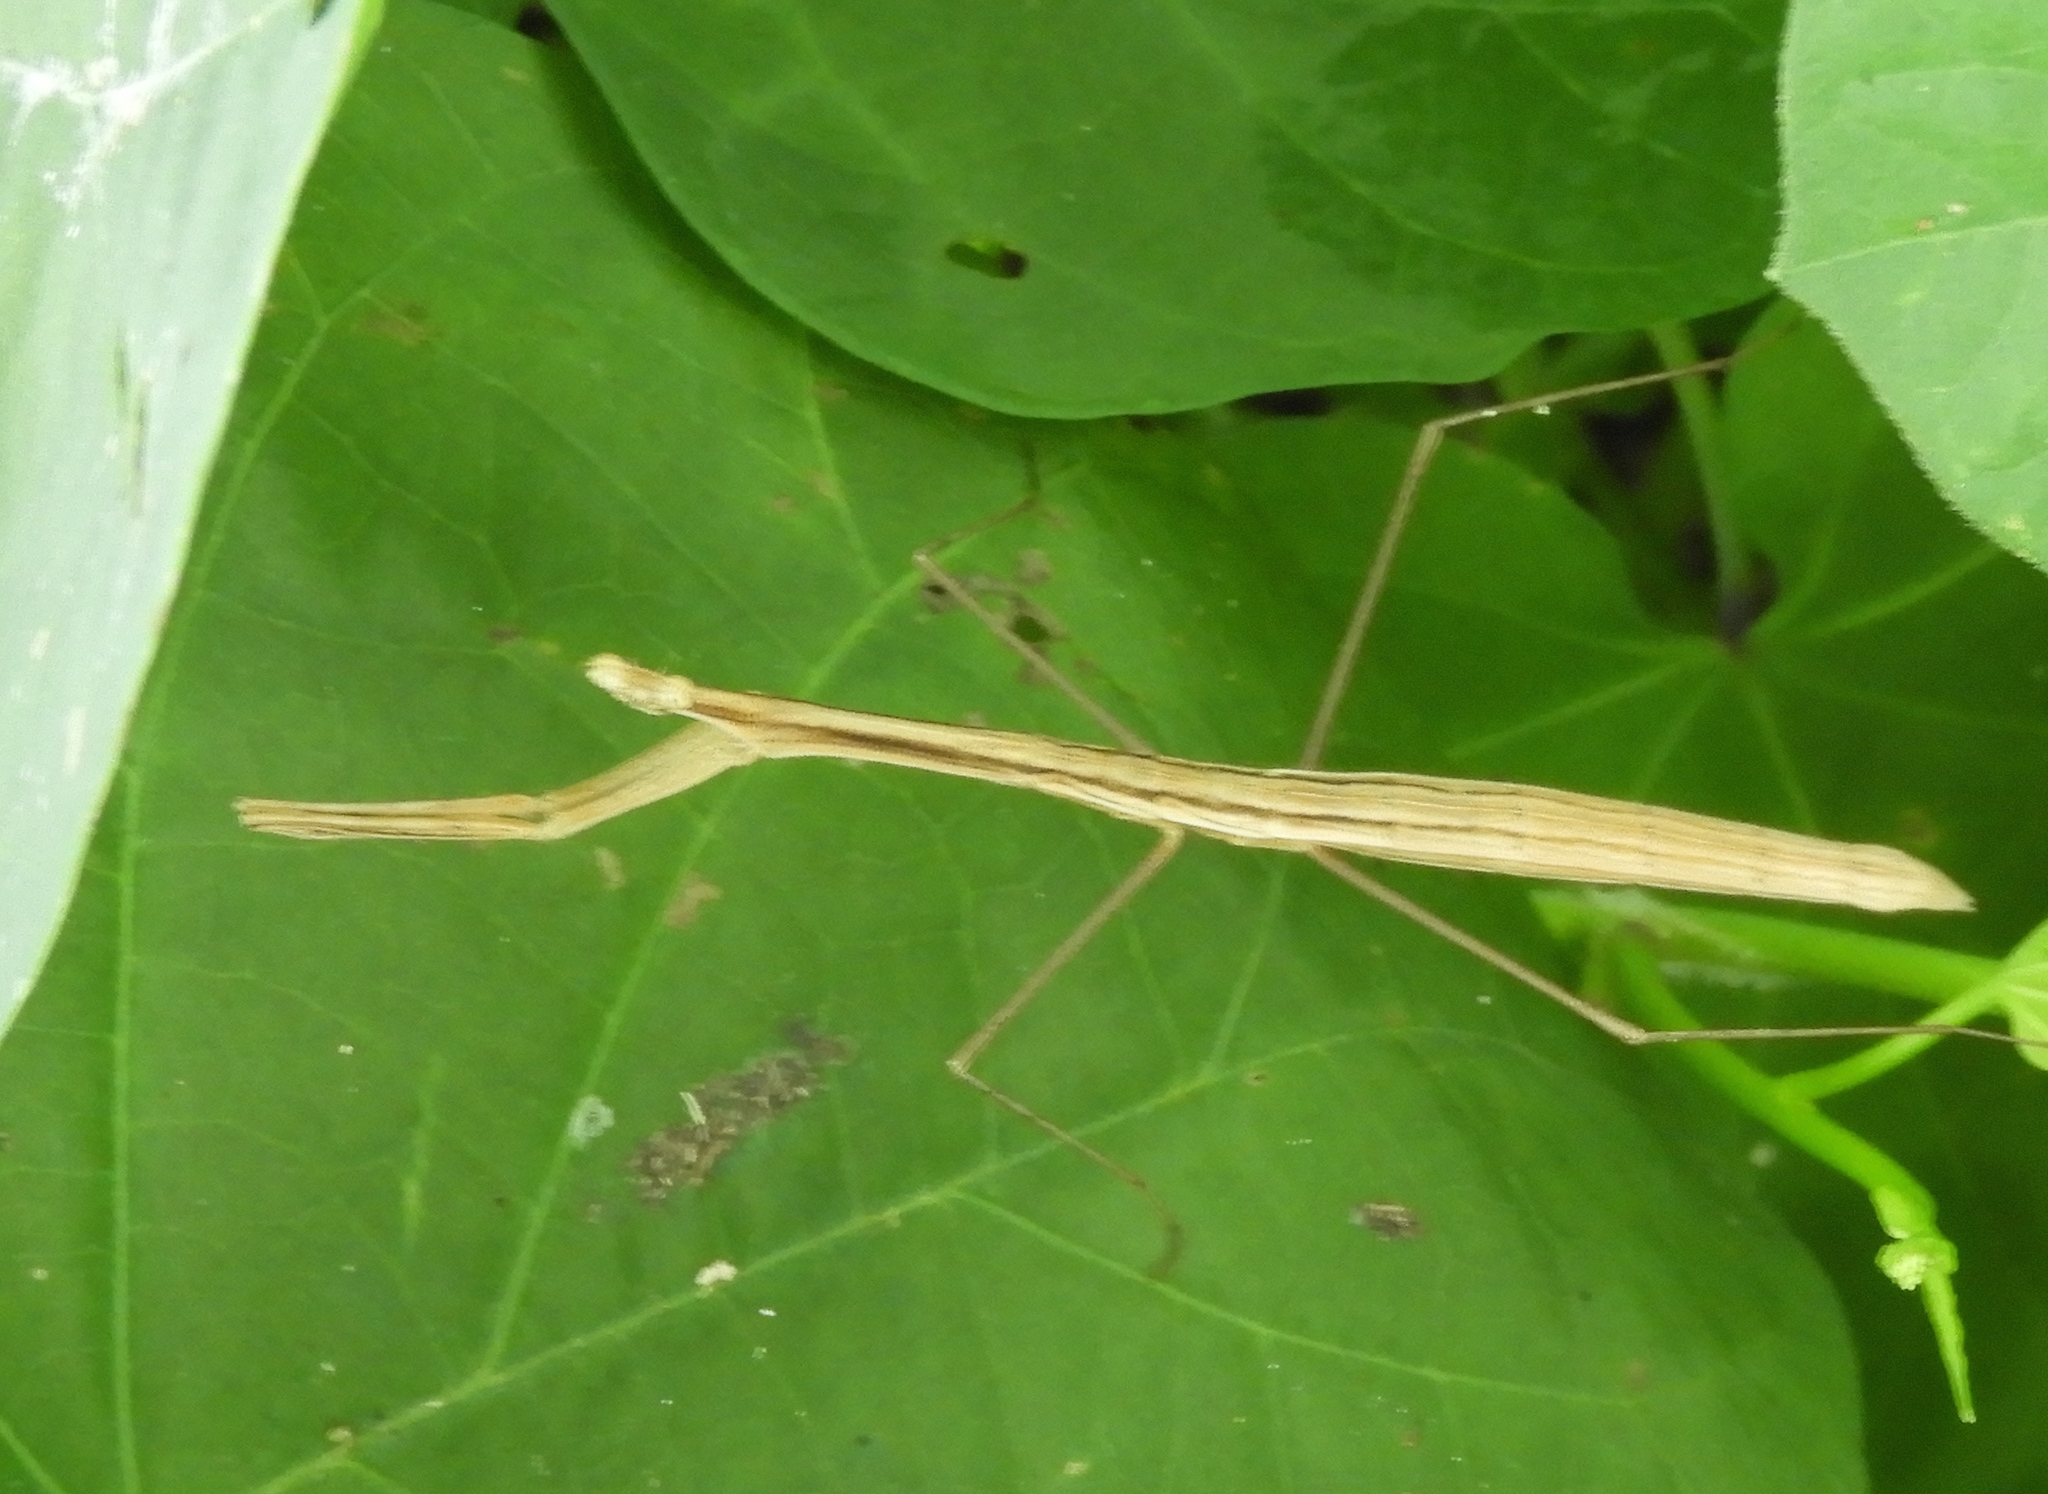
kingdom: Animalia
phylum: Arthropoda
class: Insecta
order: Mantodea
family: Thespidae
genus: Bistanta
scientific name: Bistanta mexicana
